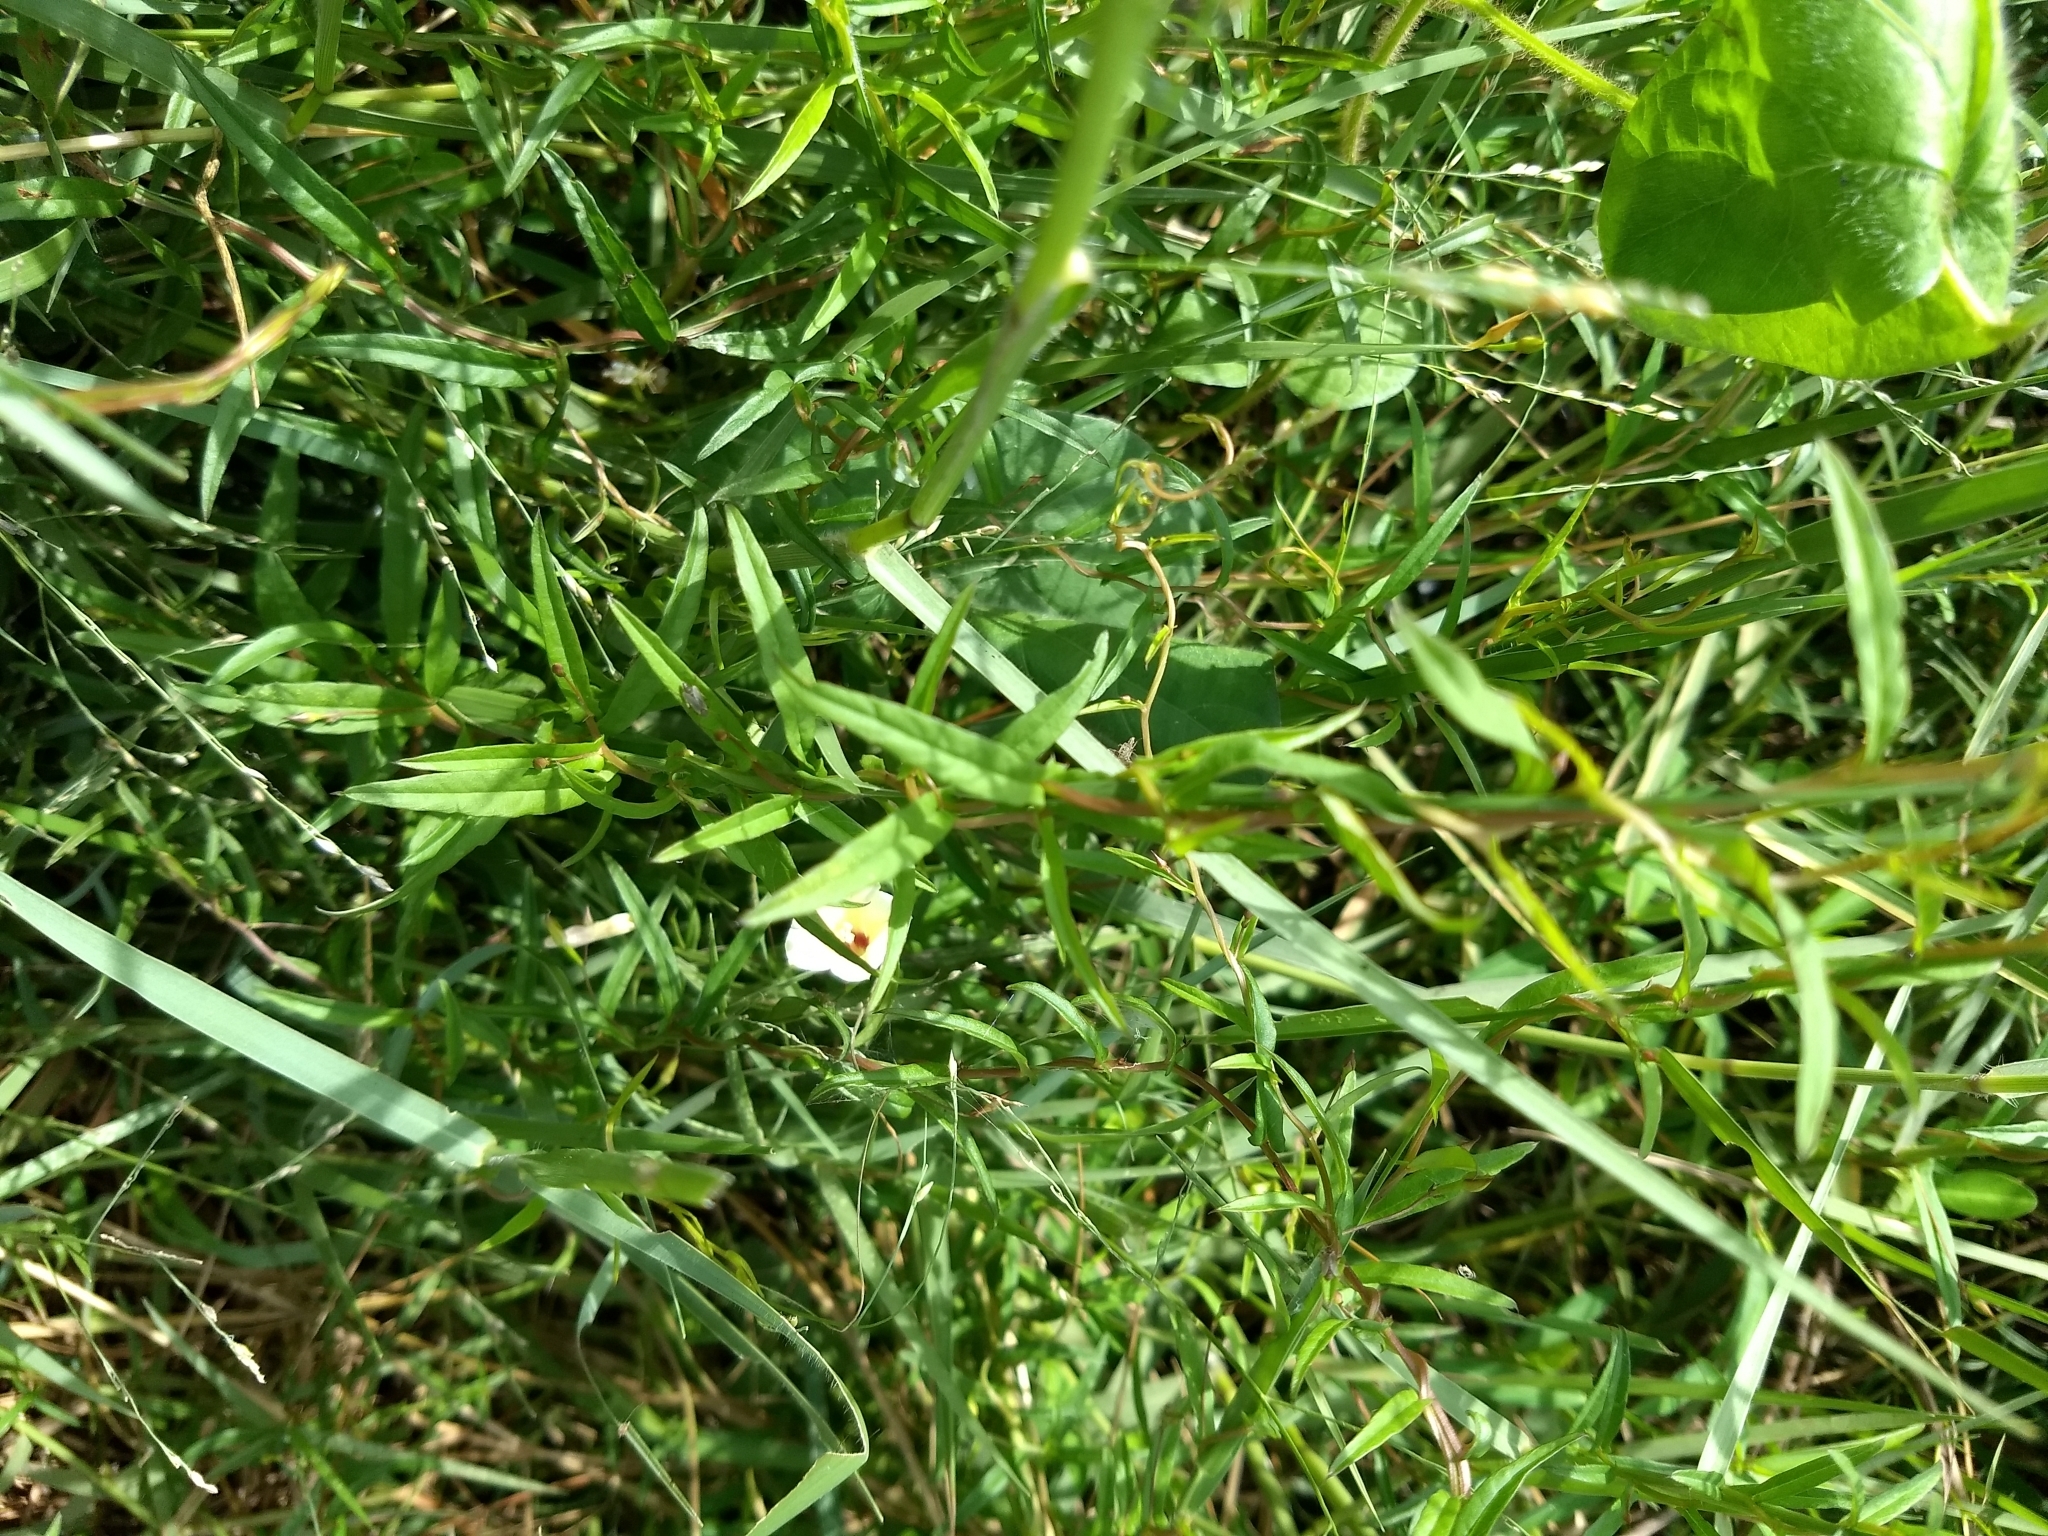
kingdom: Plantae
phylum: Tracheophyta
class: Magnoliopsida
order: Solanales
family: Convolvulaceae
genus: Xenostegia
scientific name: Xenostegia tridentata
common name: African morningvine
